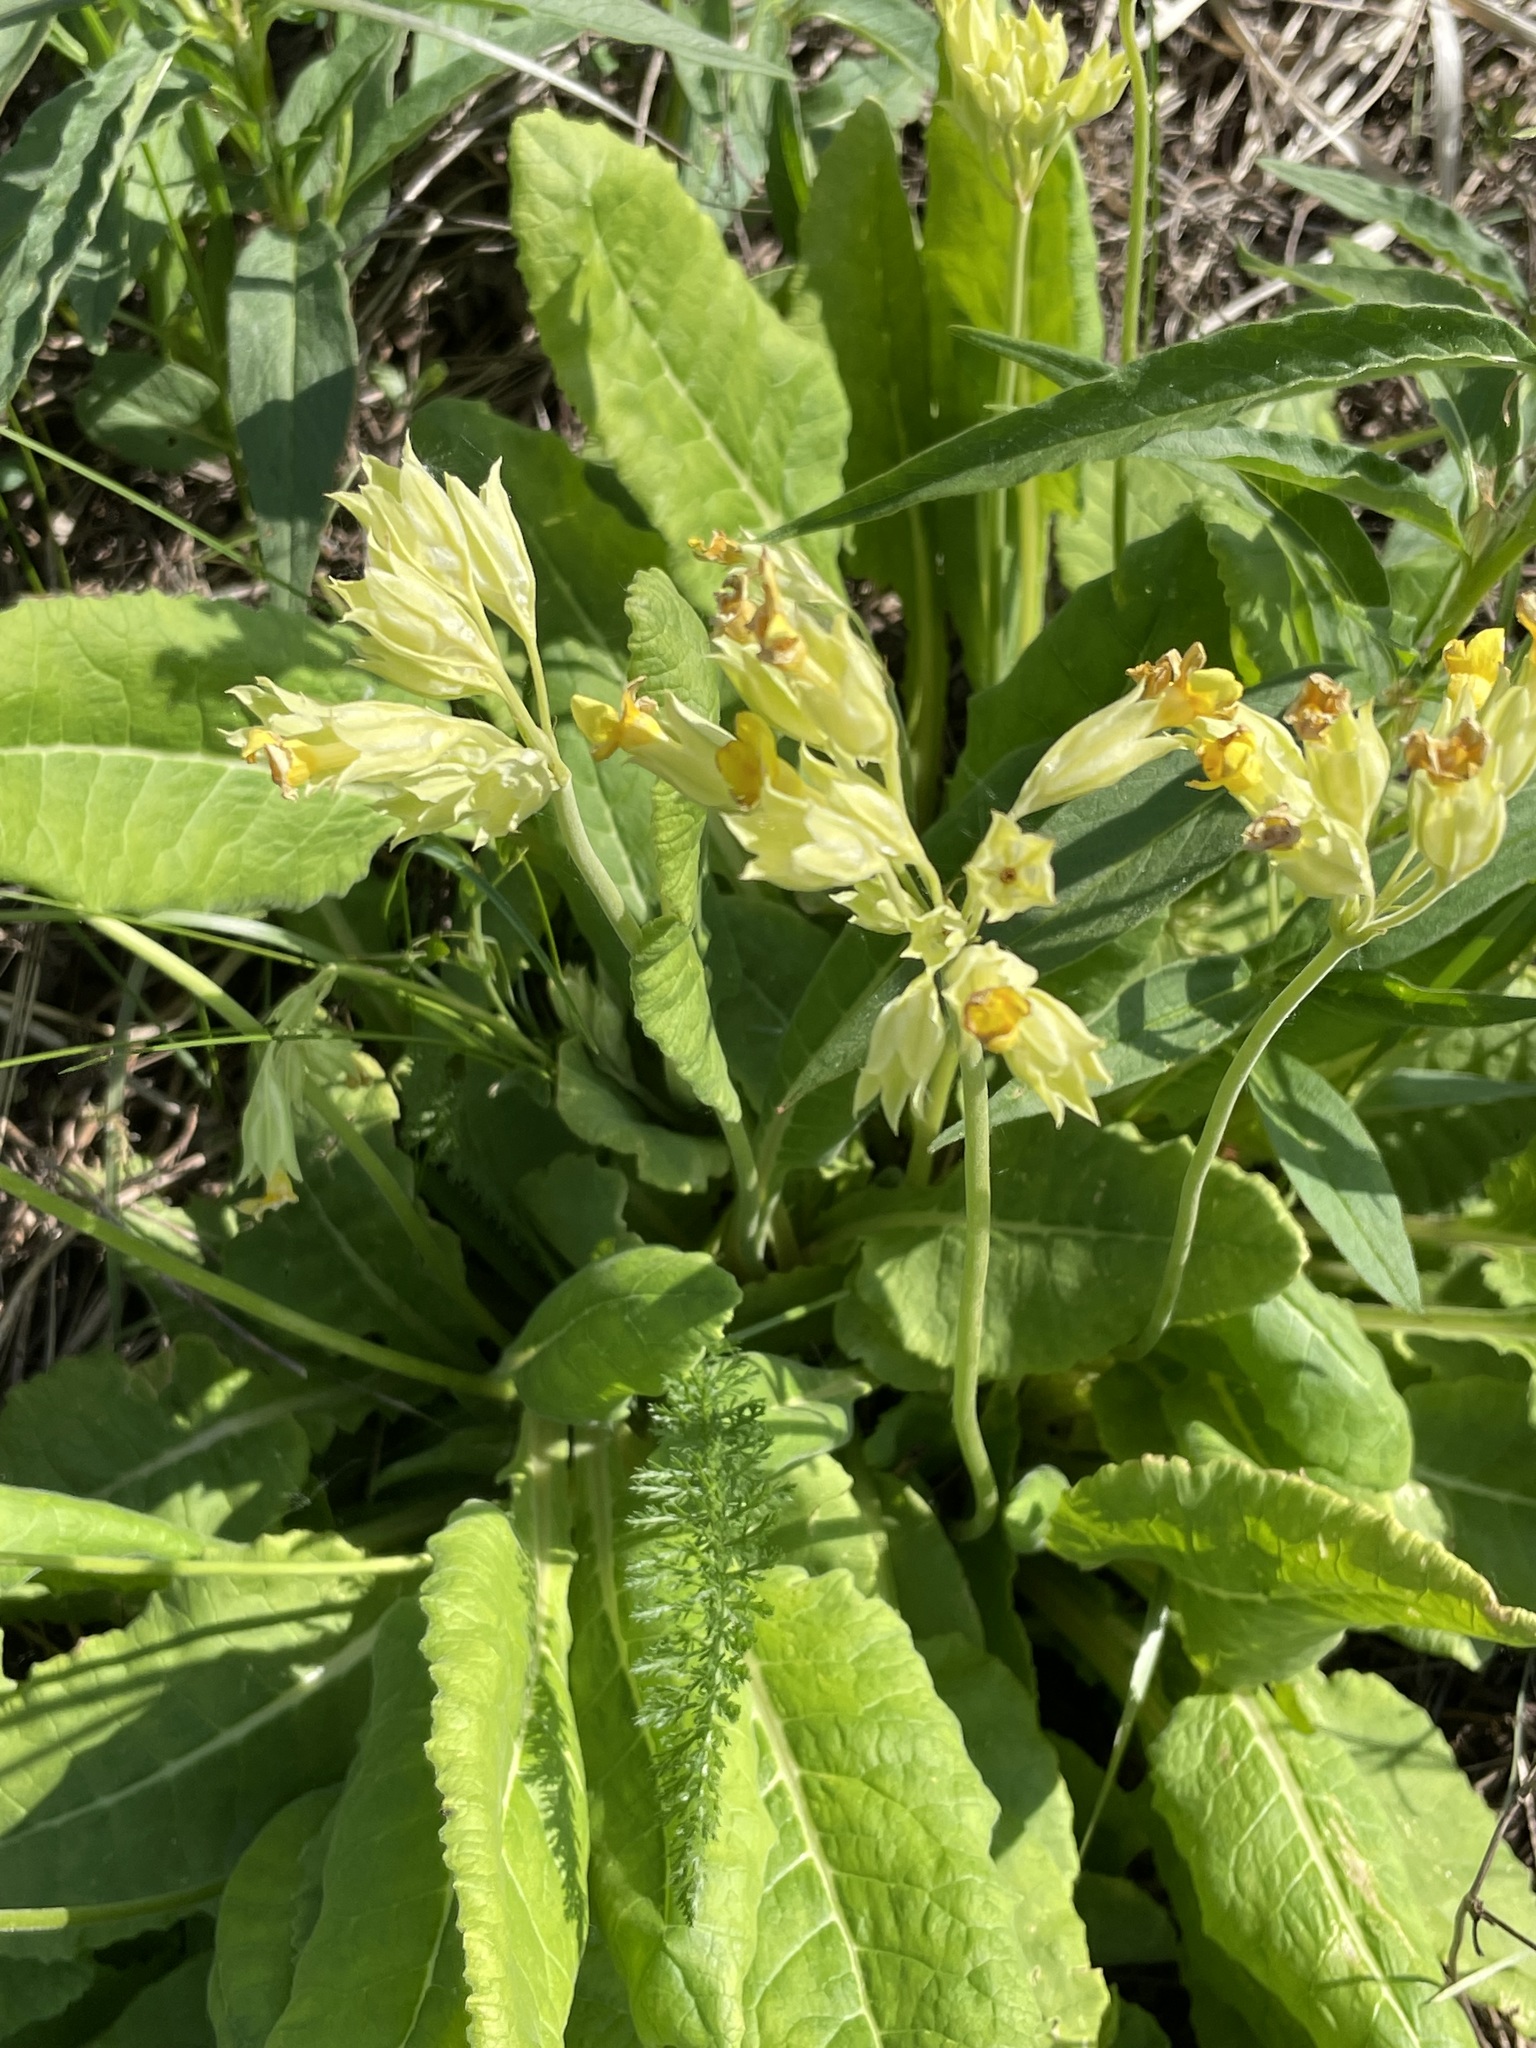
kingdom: Plantae
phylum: Tracheophyta
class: Magnoliopsida
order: Ericales
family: Primulaceae
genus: Primula
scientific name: Primula veris
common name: Cowslip
